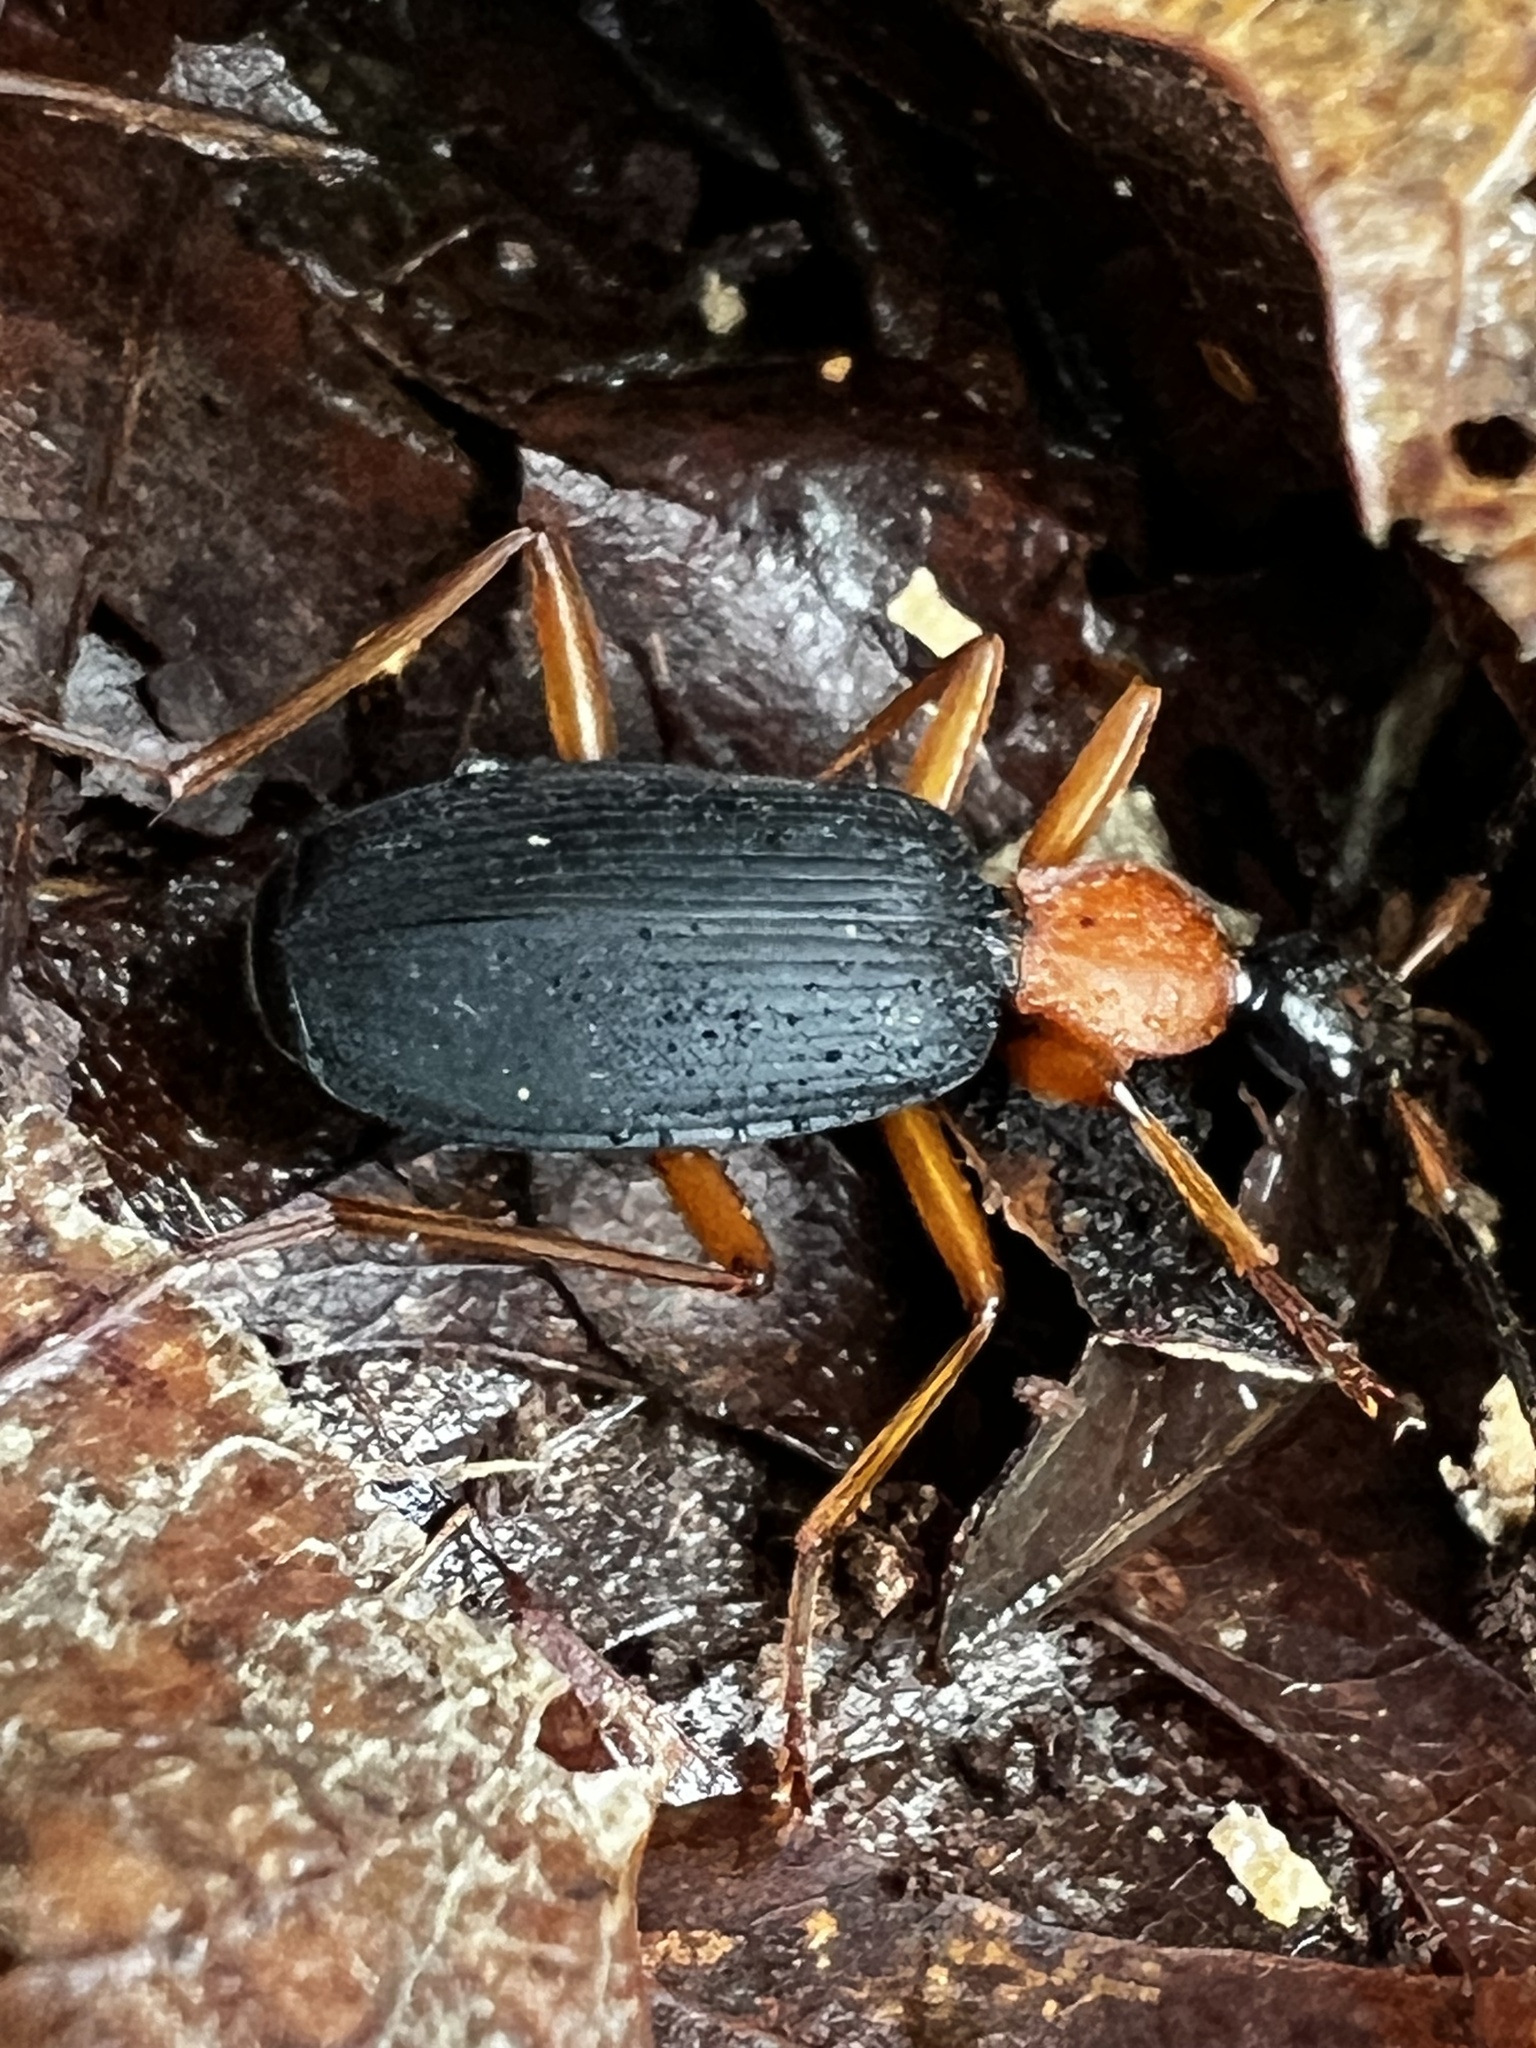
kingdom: Animalia
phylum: Arthropoda
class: Insecta
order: Coleoptera
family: Carabidae
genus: Galerita
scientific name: Galerita bicolor
